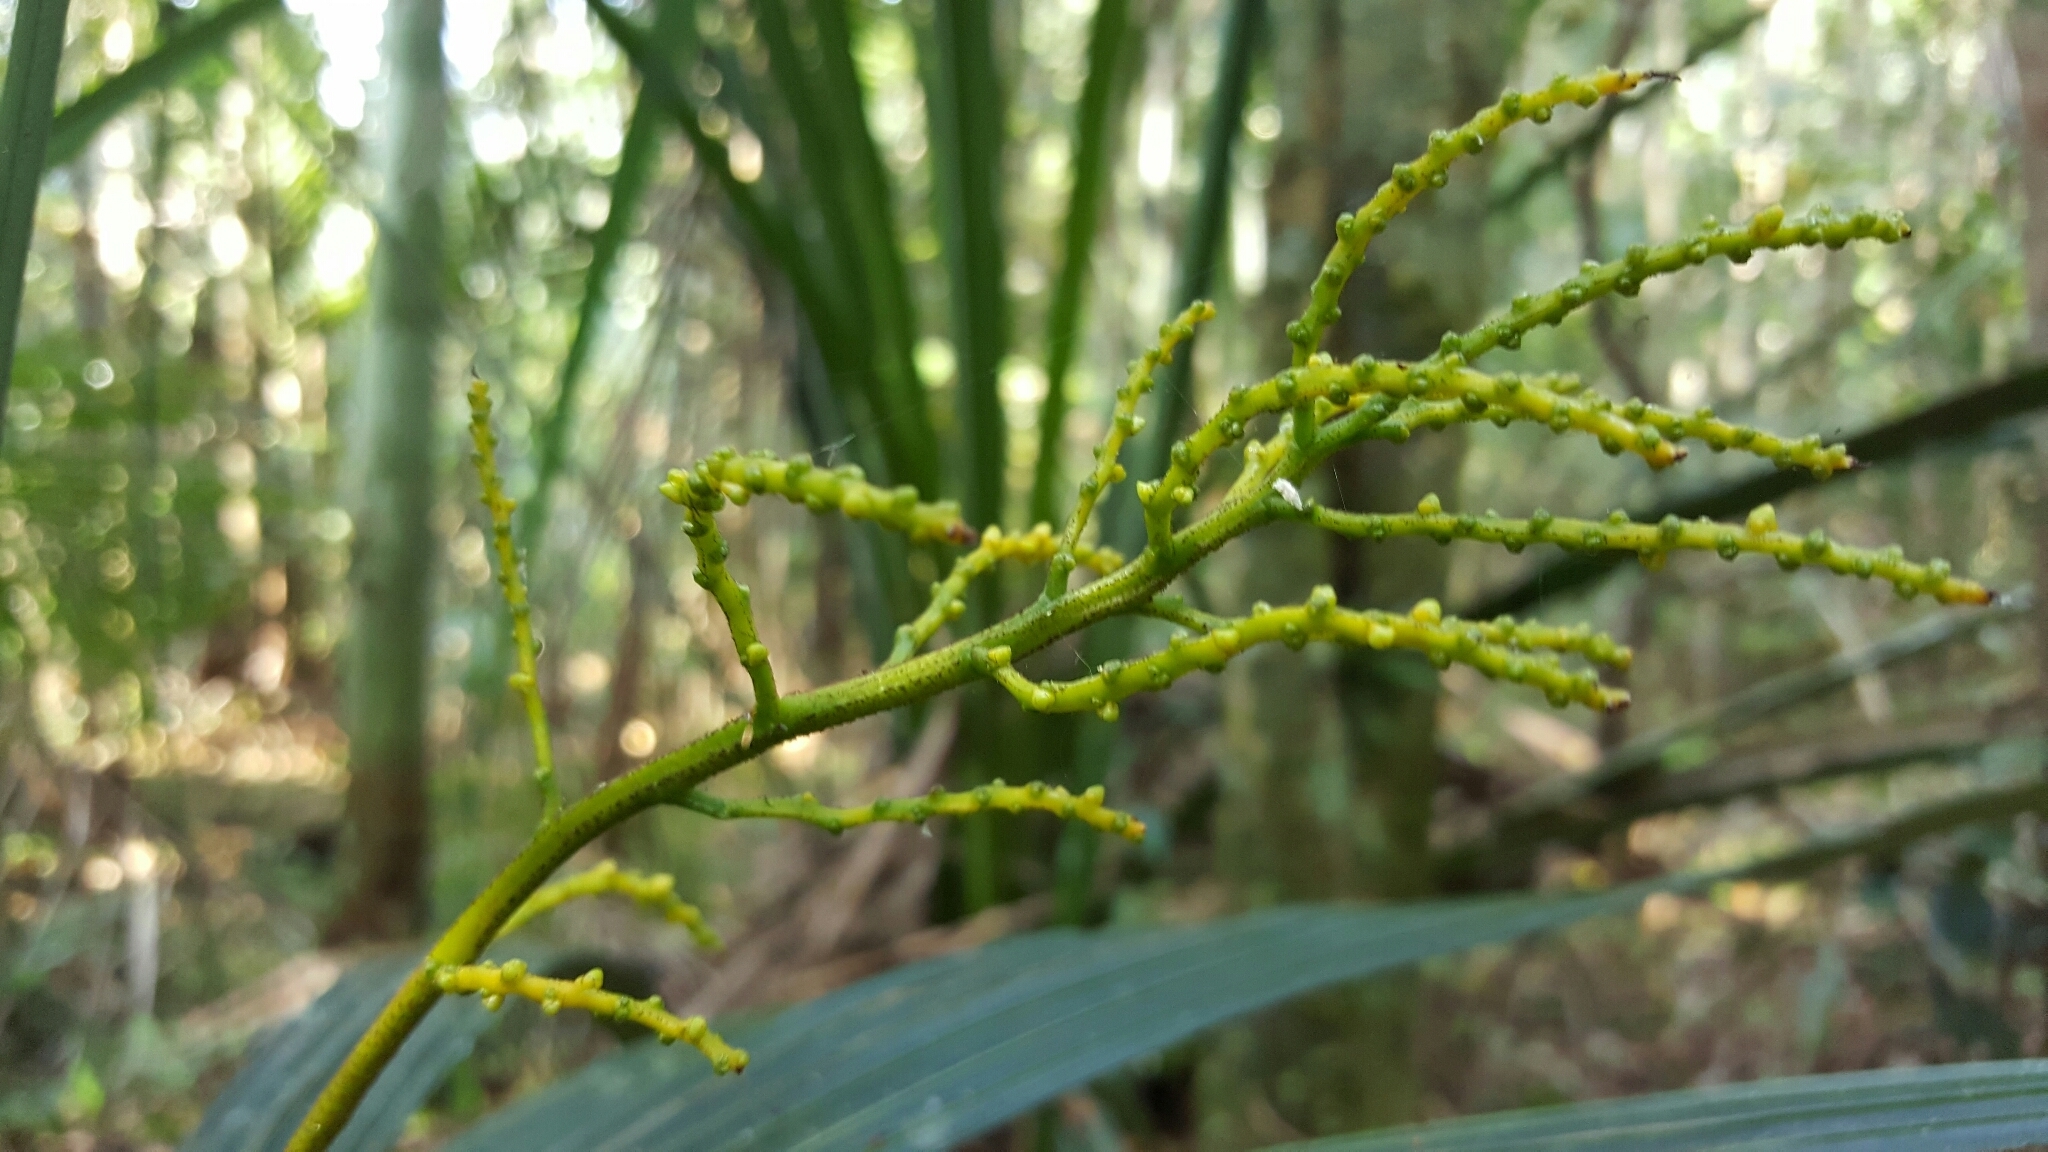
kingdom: Plantae
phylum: Tracheophyta
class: Liliopsida
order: Arecales
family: Arecaceae
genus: Dypsis
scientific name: Dypsis dracaenoides
